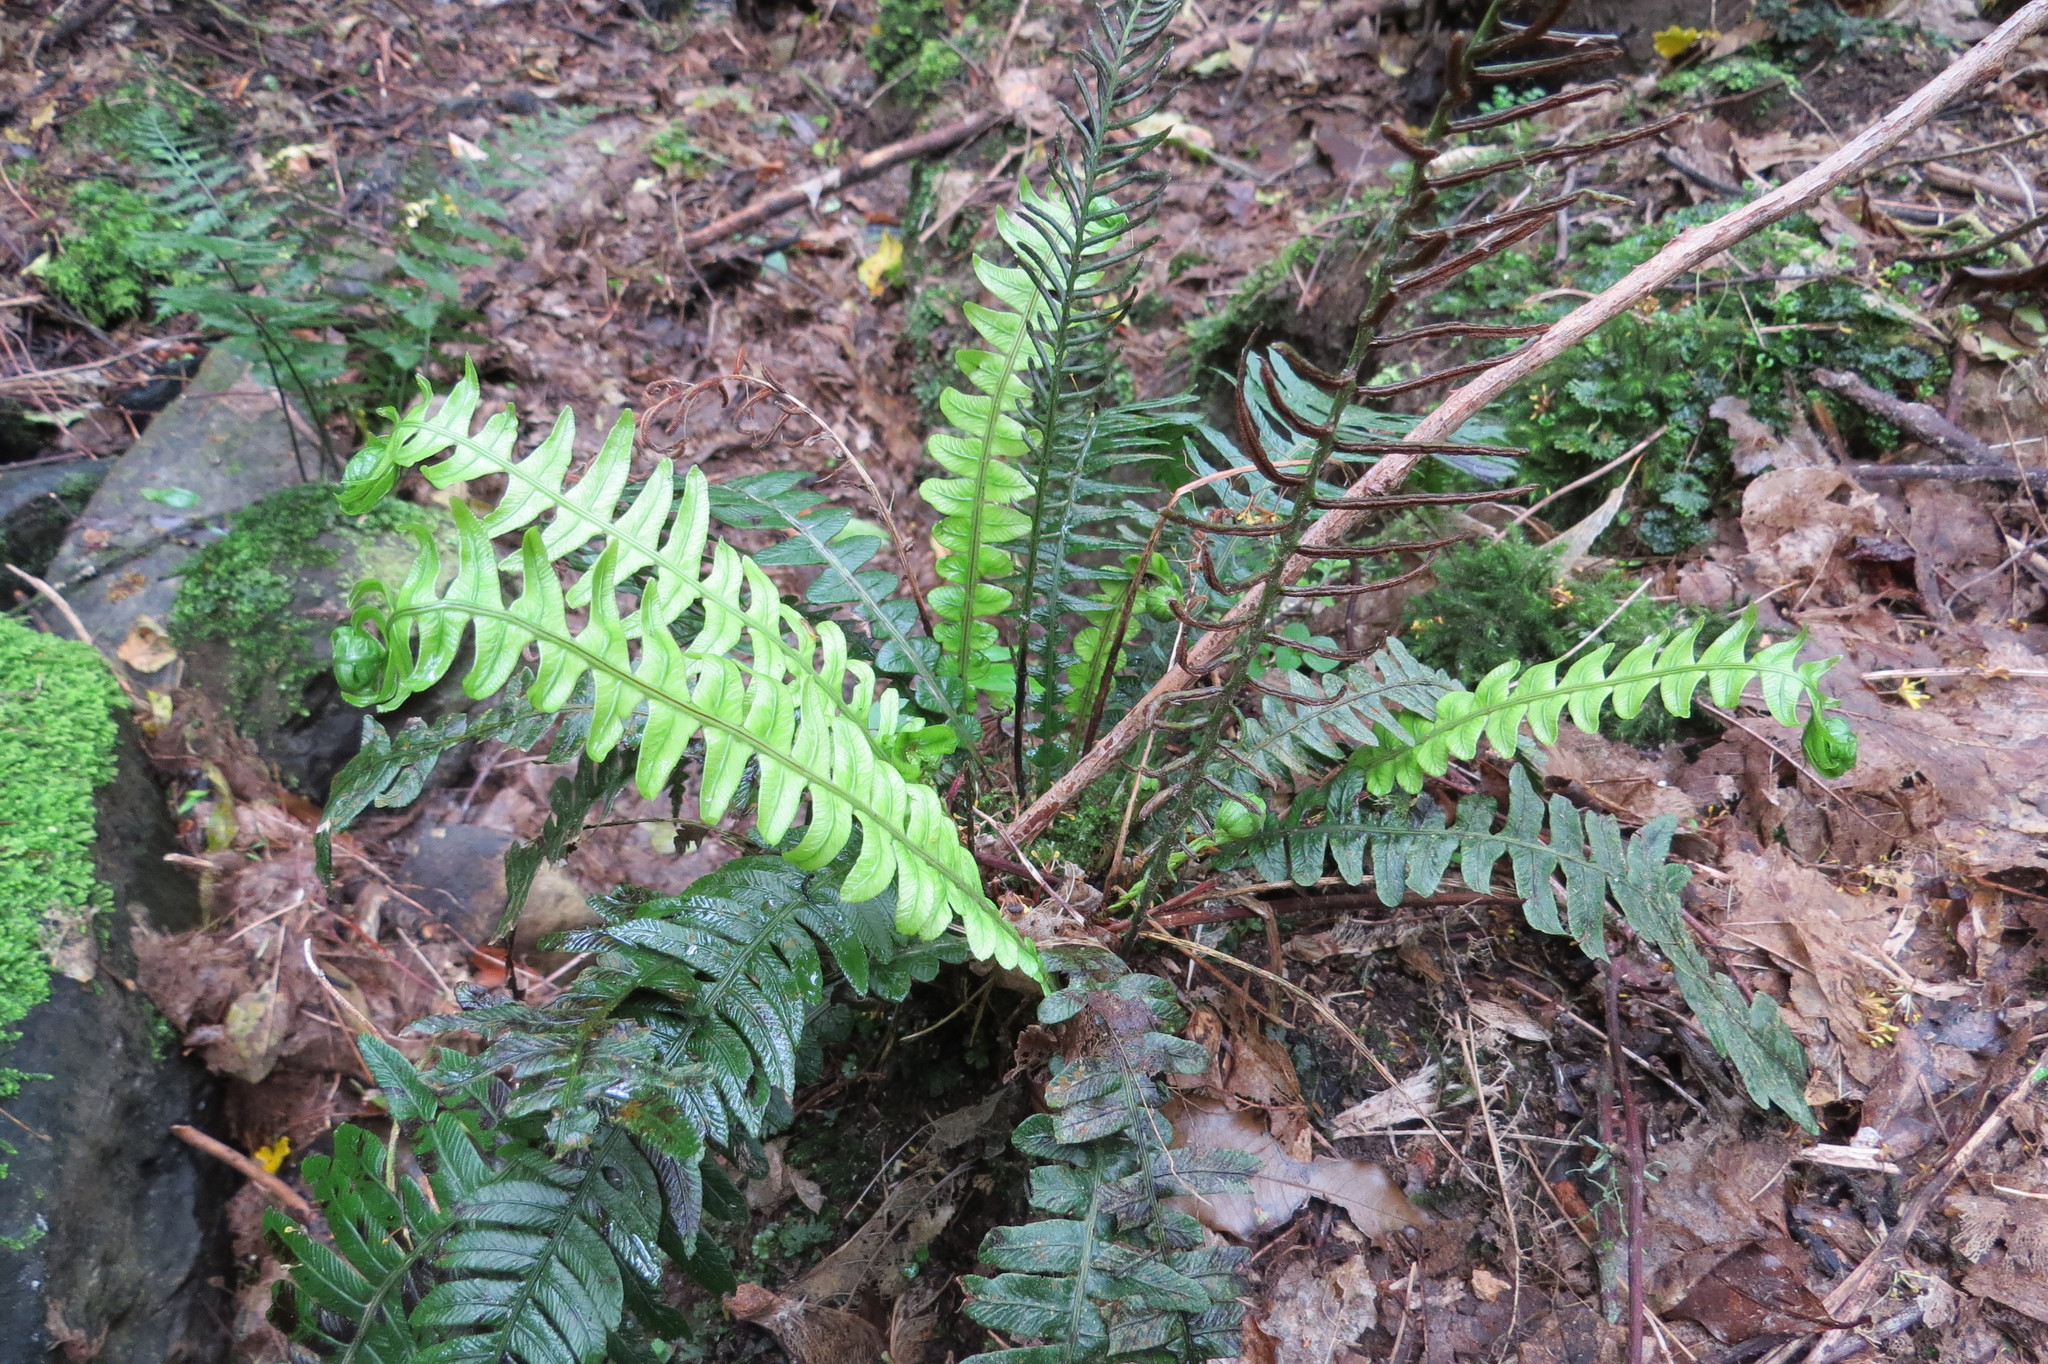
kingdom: Plantae
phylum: Tracheophyta
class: Polypodiopsida
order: Polypodiales
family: Blechnaceae
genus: Austroblechnum
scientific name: Austroblechnum lanceolatum
